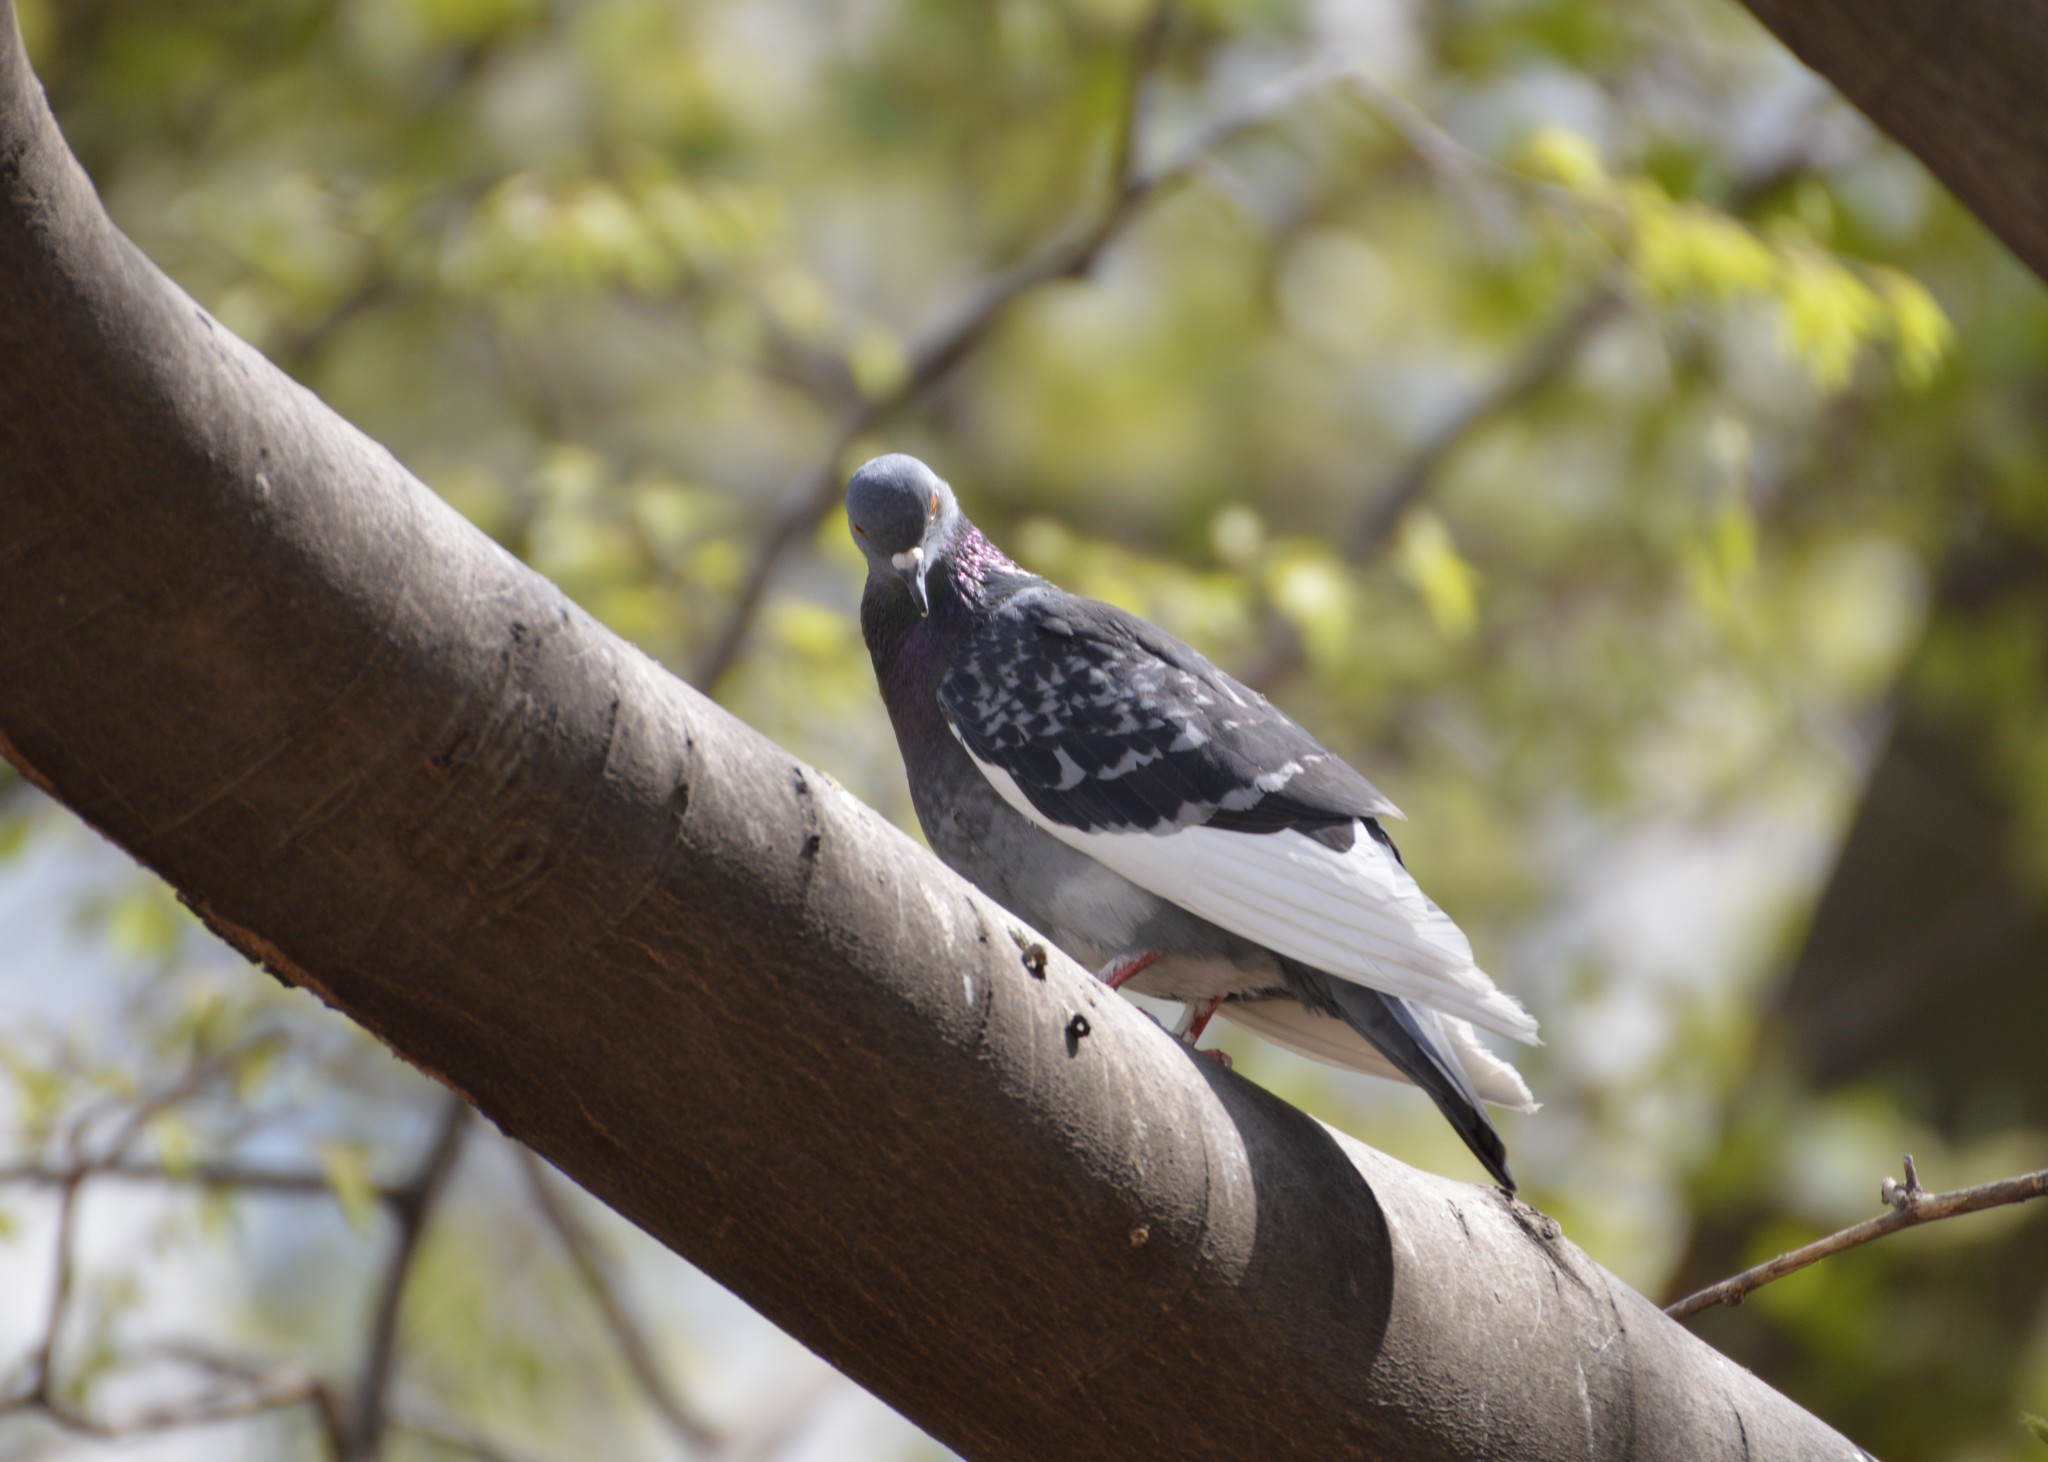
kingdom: Animalia
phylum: Chordata
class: Aves
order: Columbiformes
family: Columbidae
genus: Columba
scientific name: Columba livia
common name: Rock pigeon
